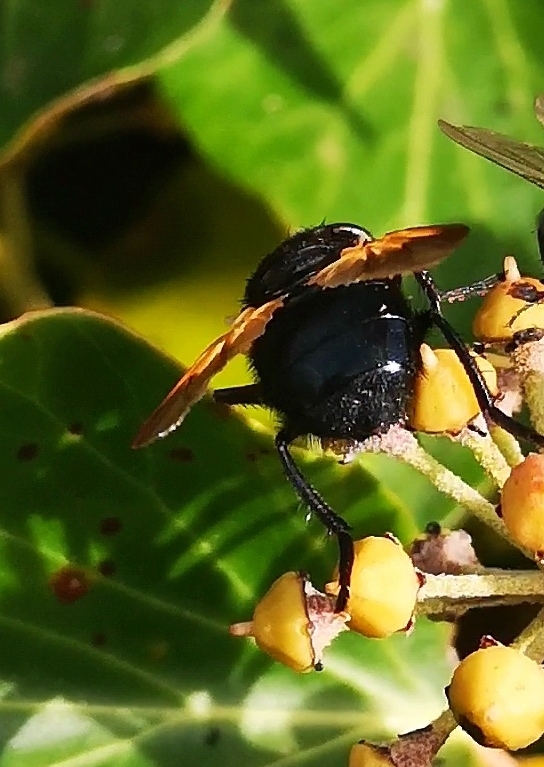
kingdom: Animalia
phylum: Arthropoda
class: Insecta
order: Diptera
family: Muscidae
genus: Mesembrina
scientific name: Mesembrina meridiana
